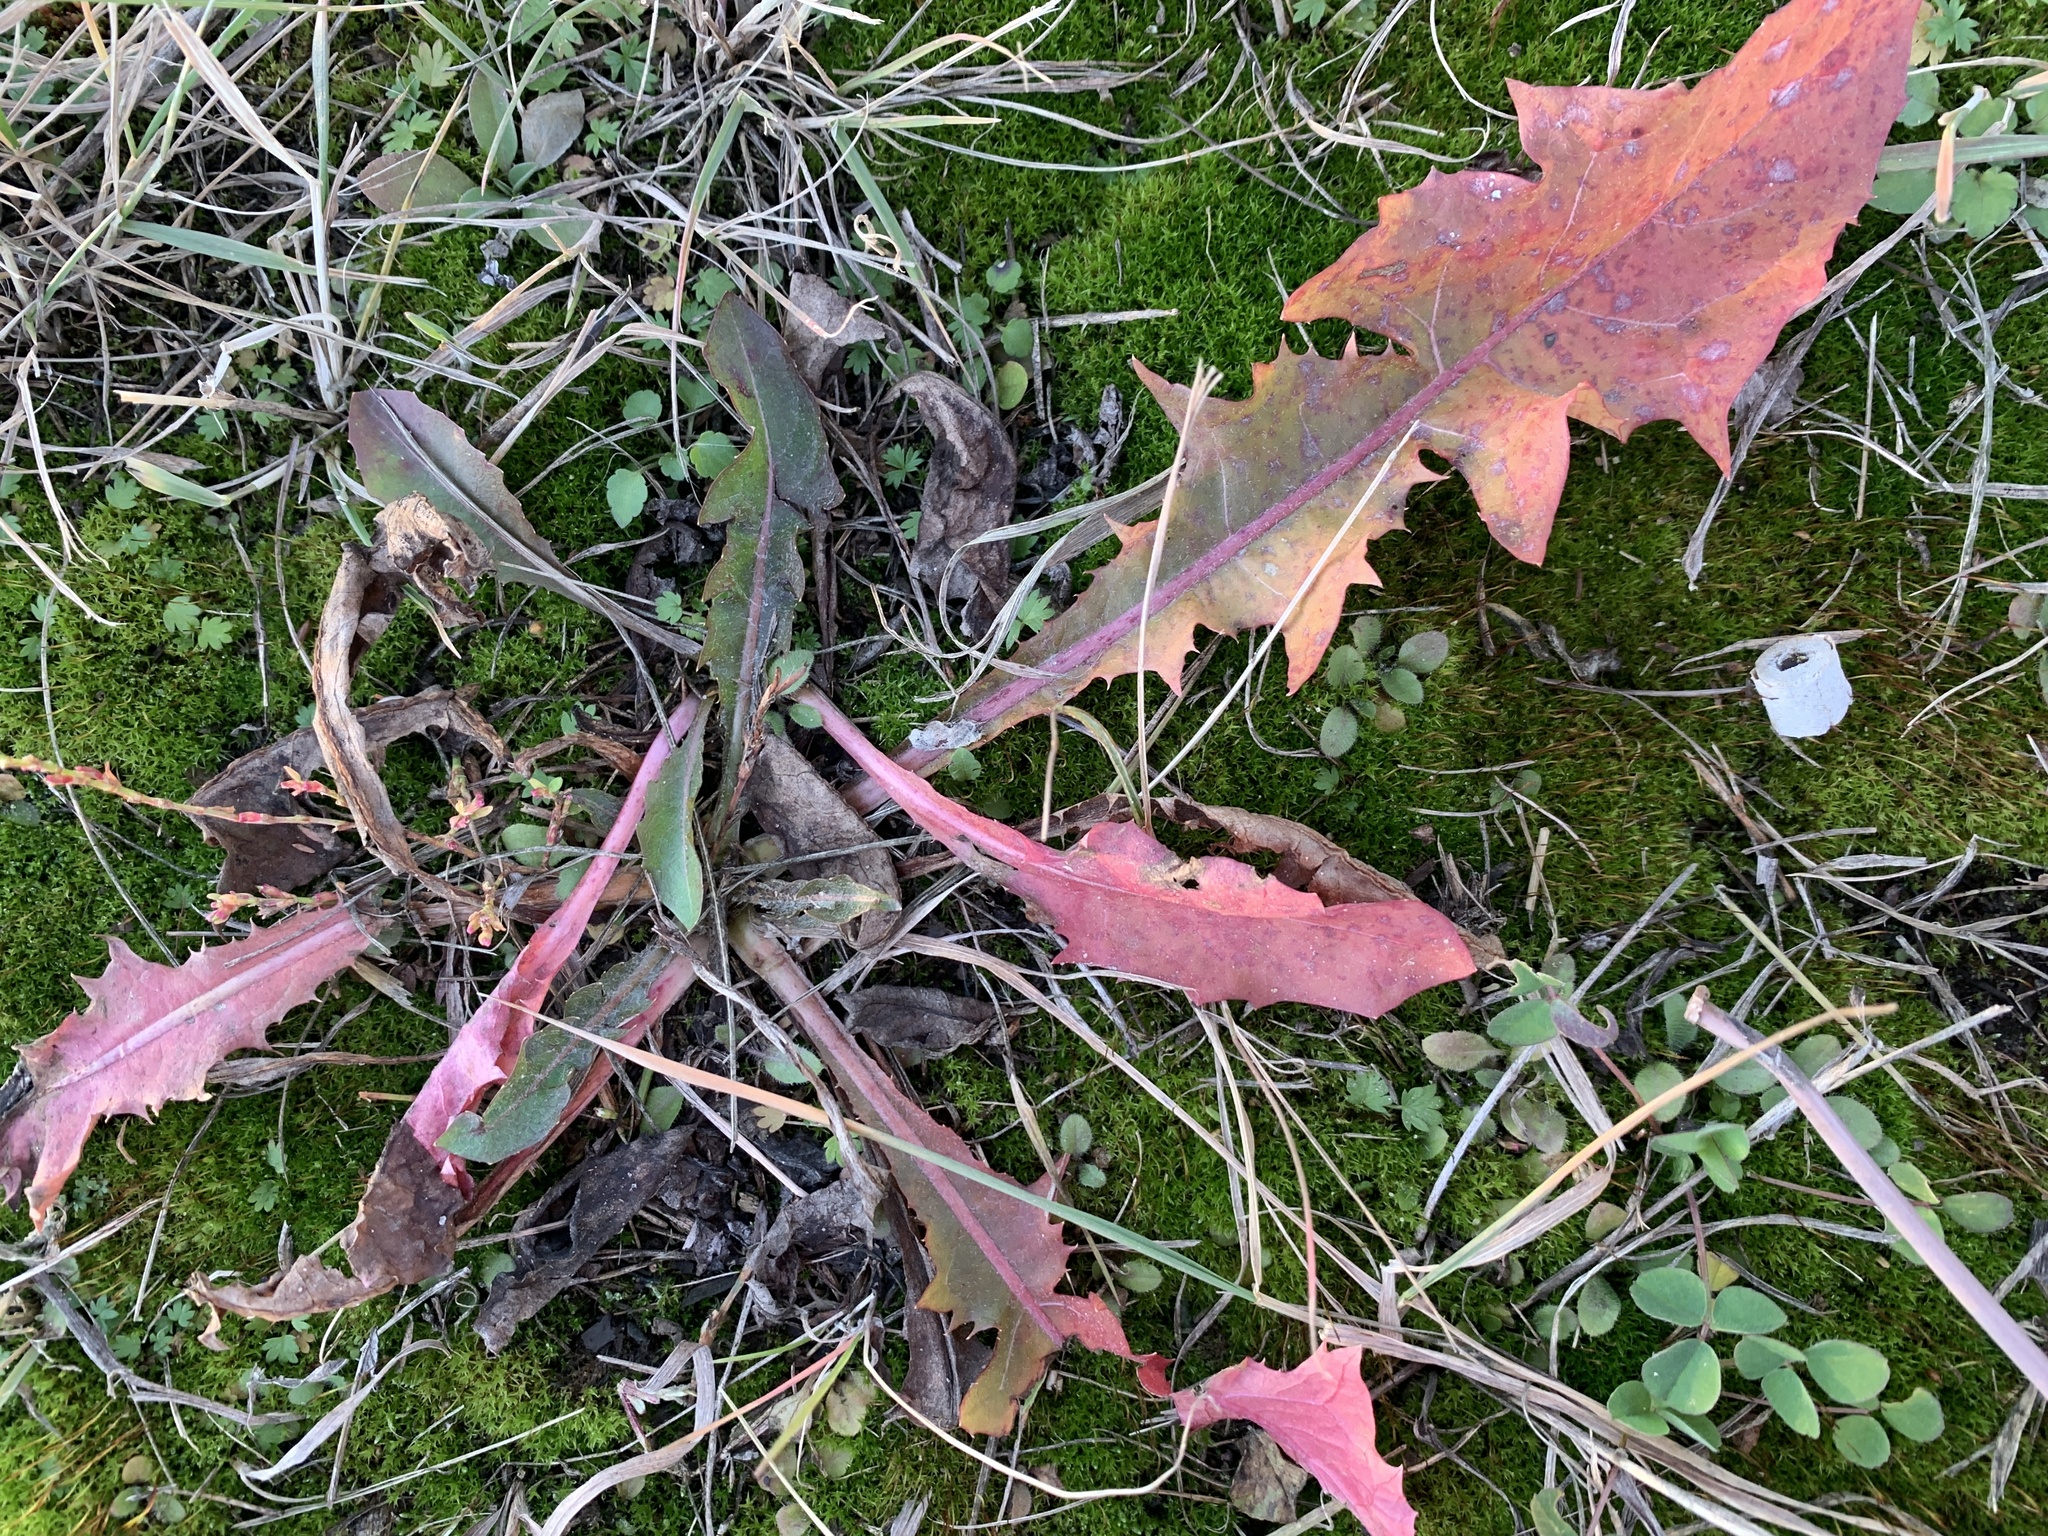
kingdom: Plantae
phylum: Tracheophyta
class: Magnoliopsida
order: Asterales
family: Asteraceae
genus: Taraxacum
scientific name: Taraxacum officinale
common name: Common dandelion
